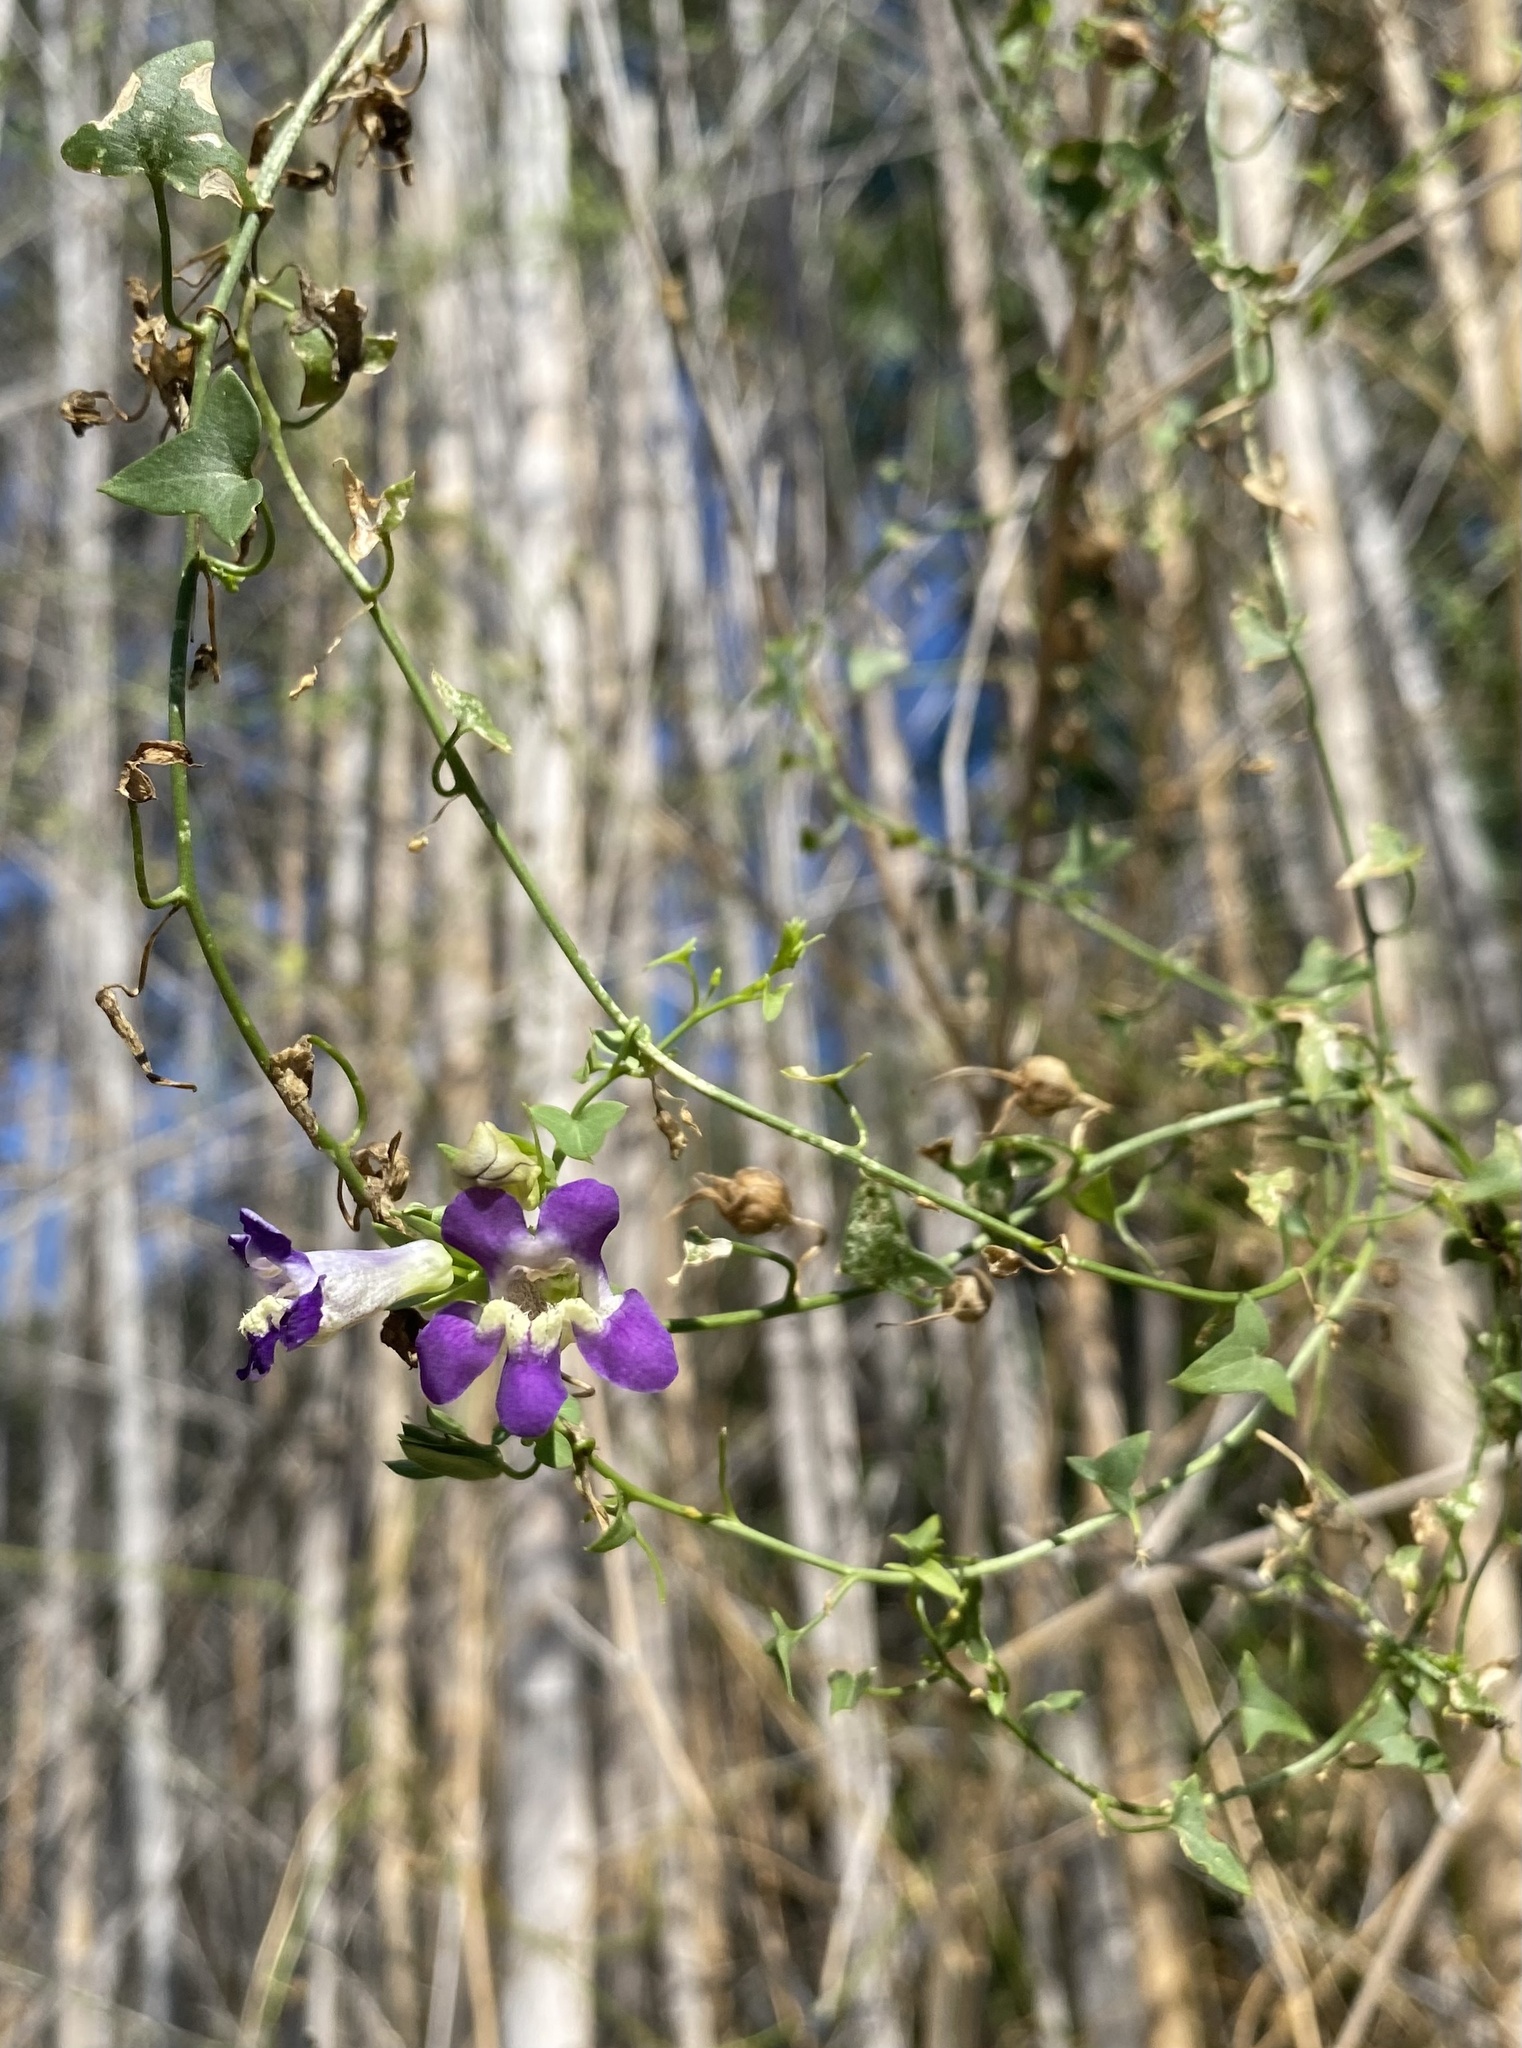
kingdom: Plantae
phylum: Tracheophyta
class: Magnoliopsida
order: Lamiales
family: Plantaginaceae
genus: Maurandella
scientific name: Maurandella antirrhiniflora
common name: Violet twining-snapdragon
